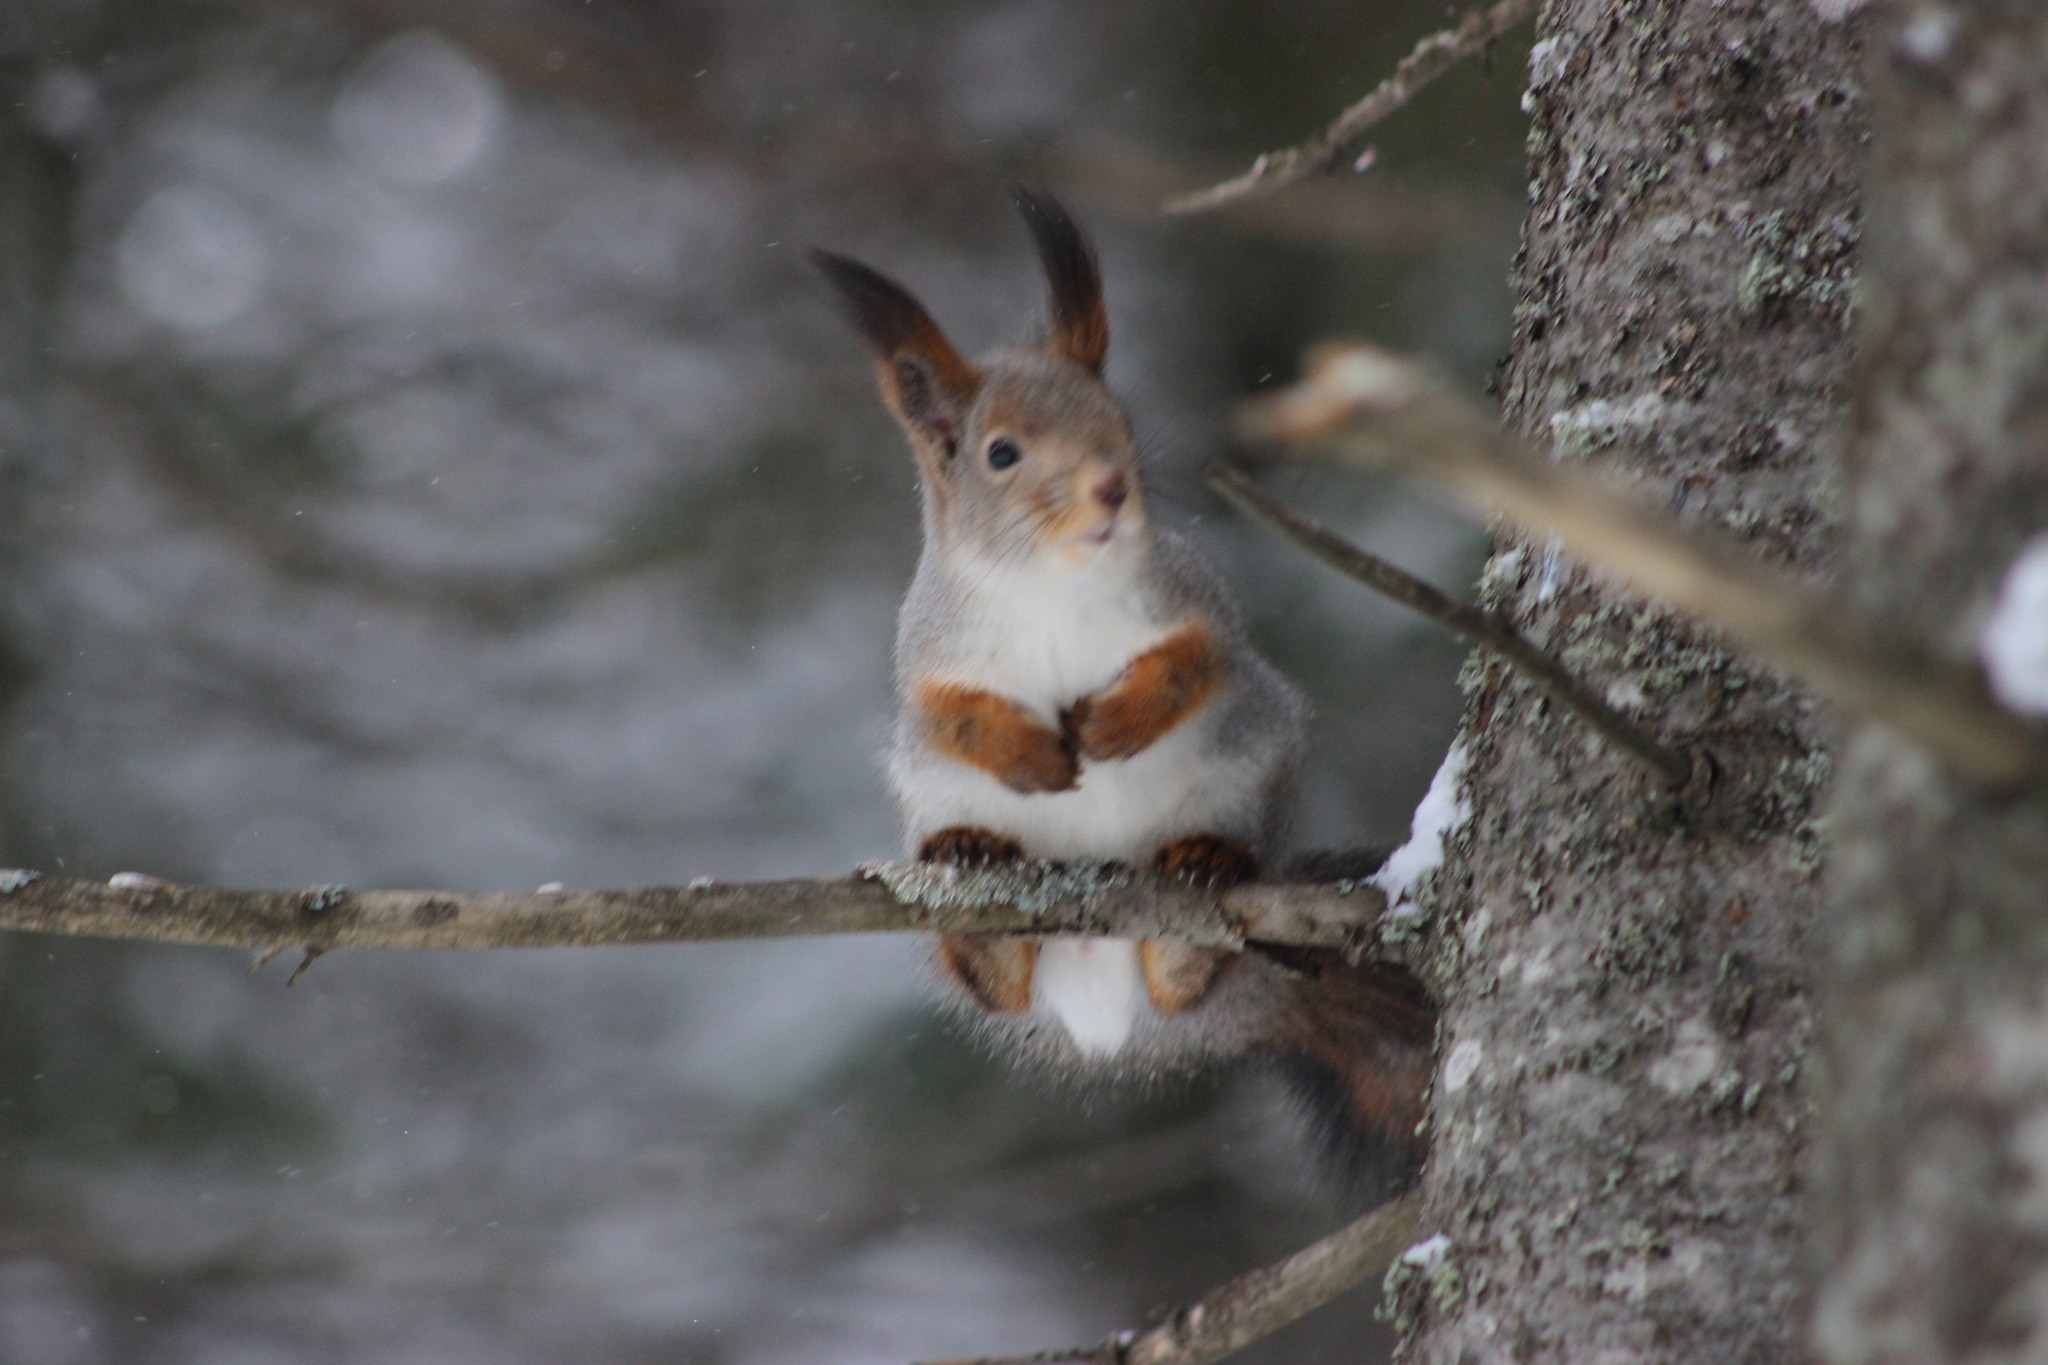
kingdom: Animalia
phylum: Chordata
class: Mammalia
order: Rodentia
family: Sciuridae
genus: Sciurus
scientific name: Sciurus vulgaris
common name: Eurasian red squirrel
